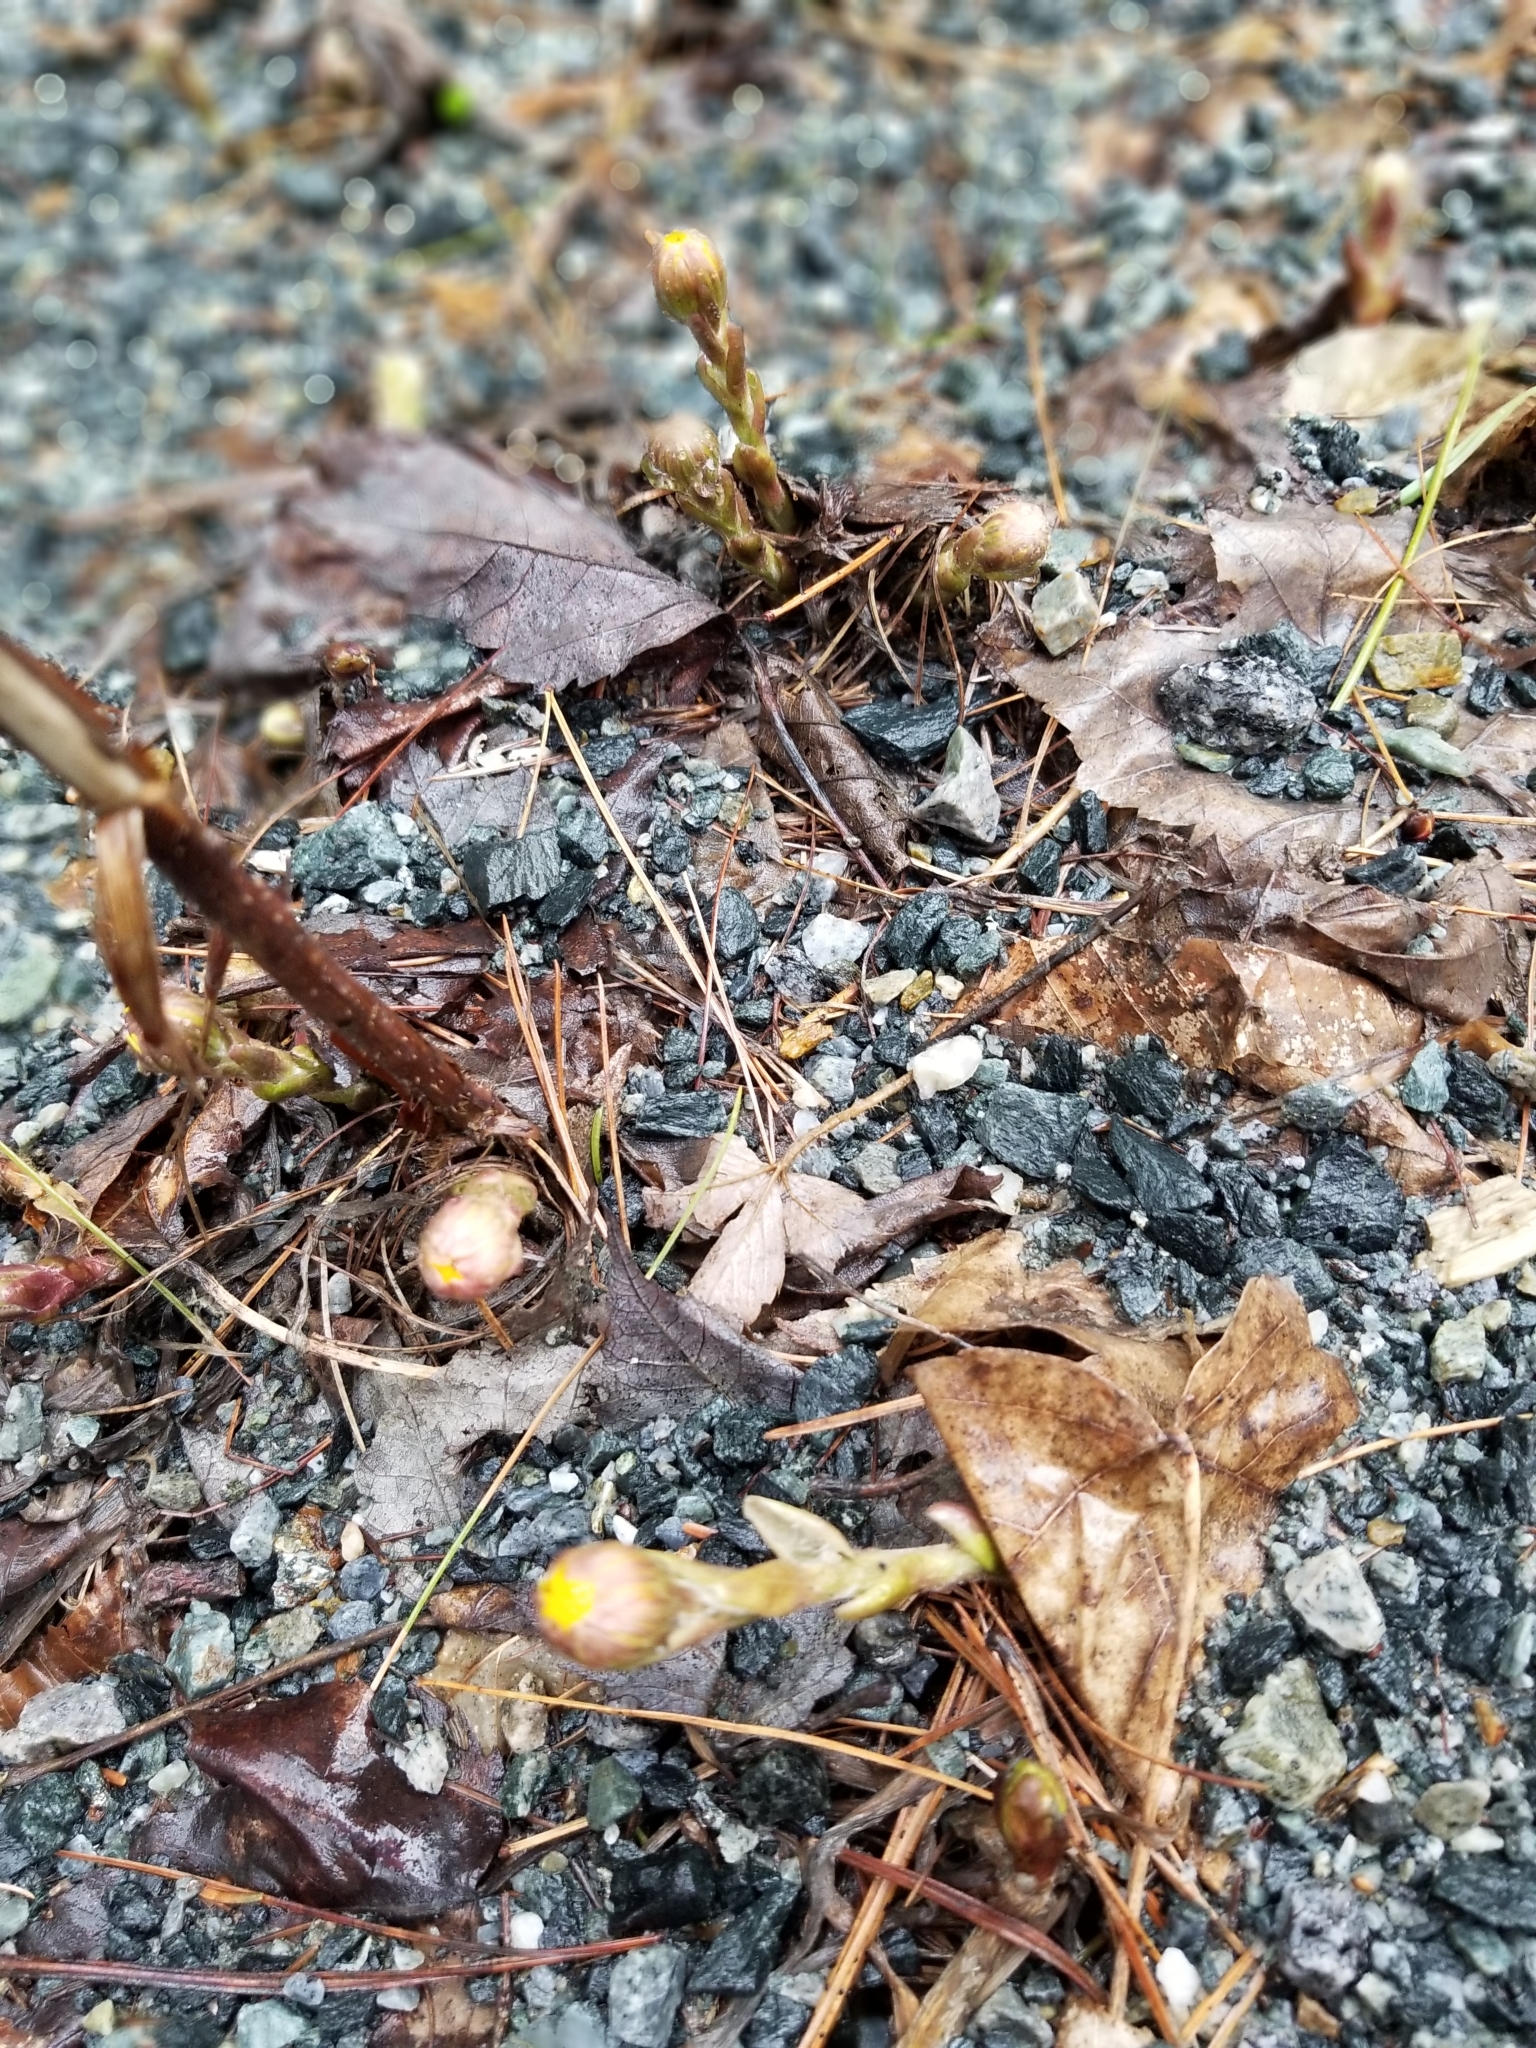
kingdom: Plantae
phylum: Tracheophyta
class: Magnoliopsida
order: Asterales
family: Asteraceae
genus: Tussilago
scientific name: Tussilago farfara
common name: Coltsfoot
